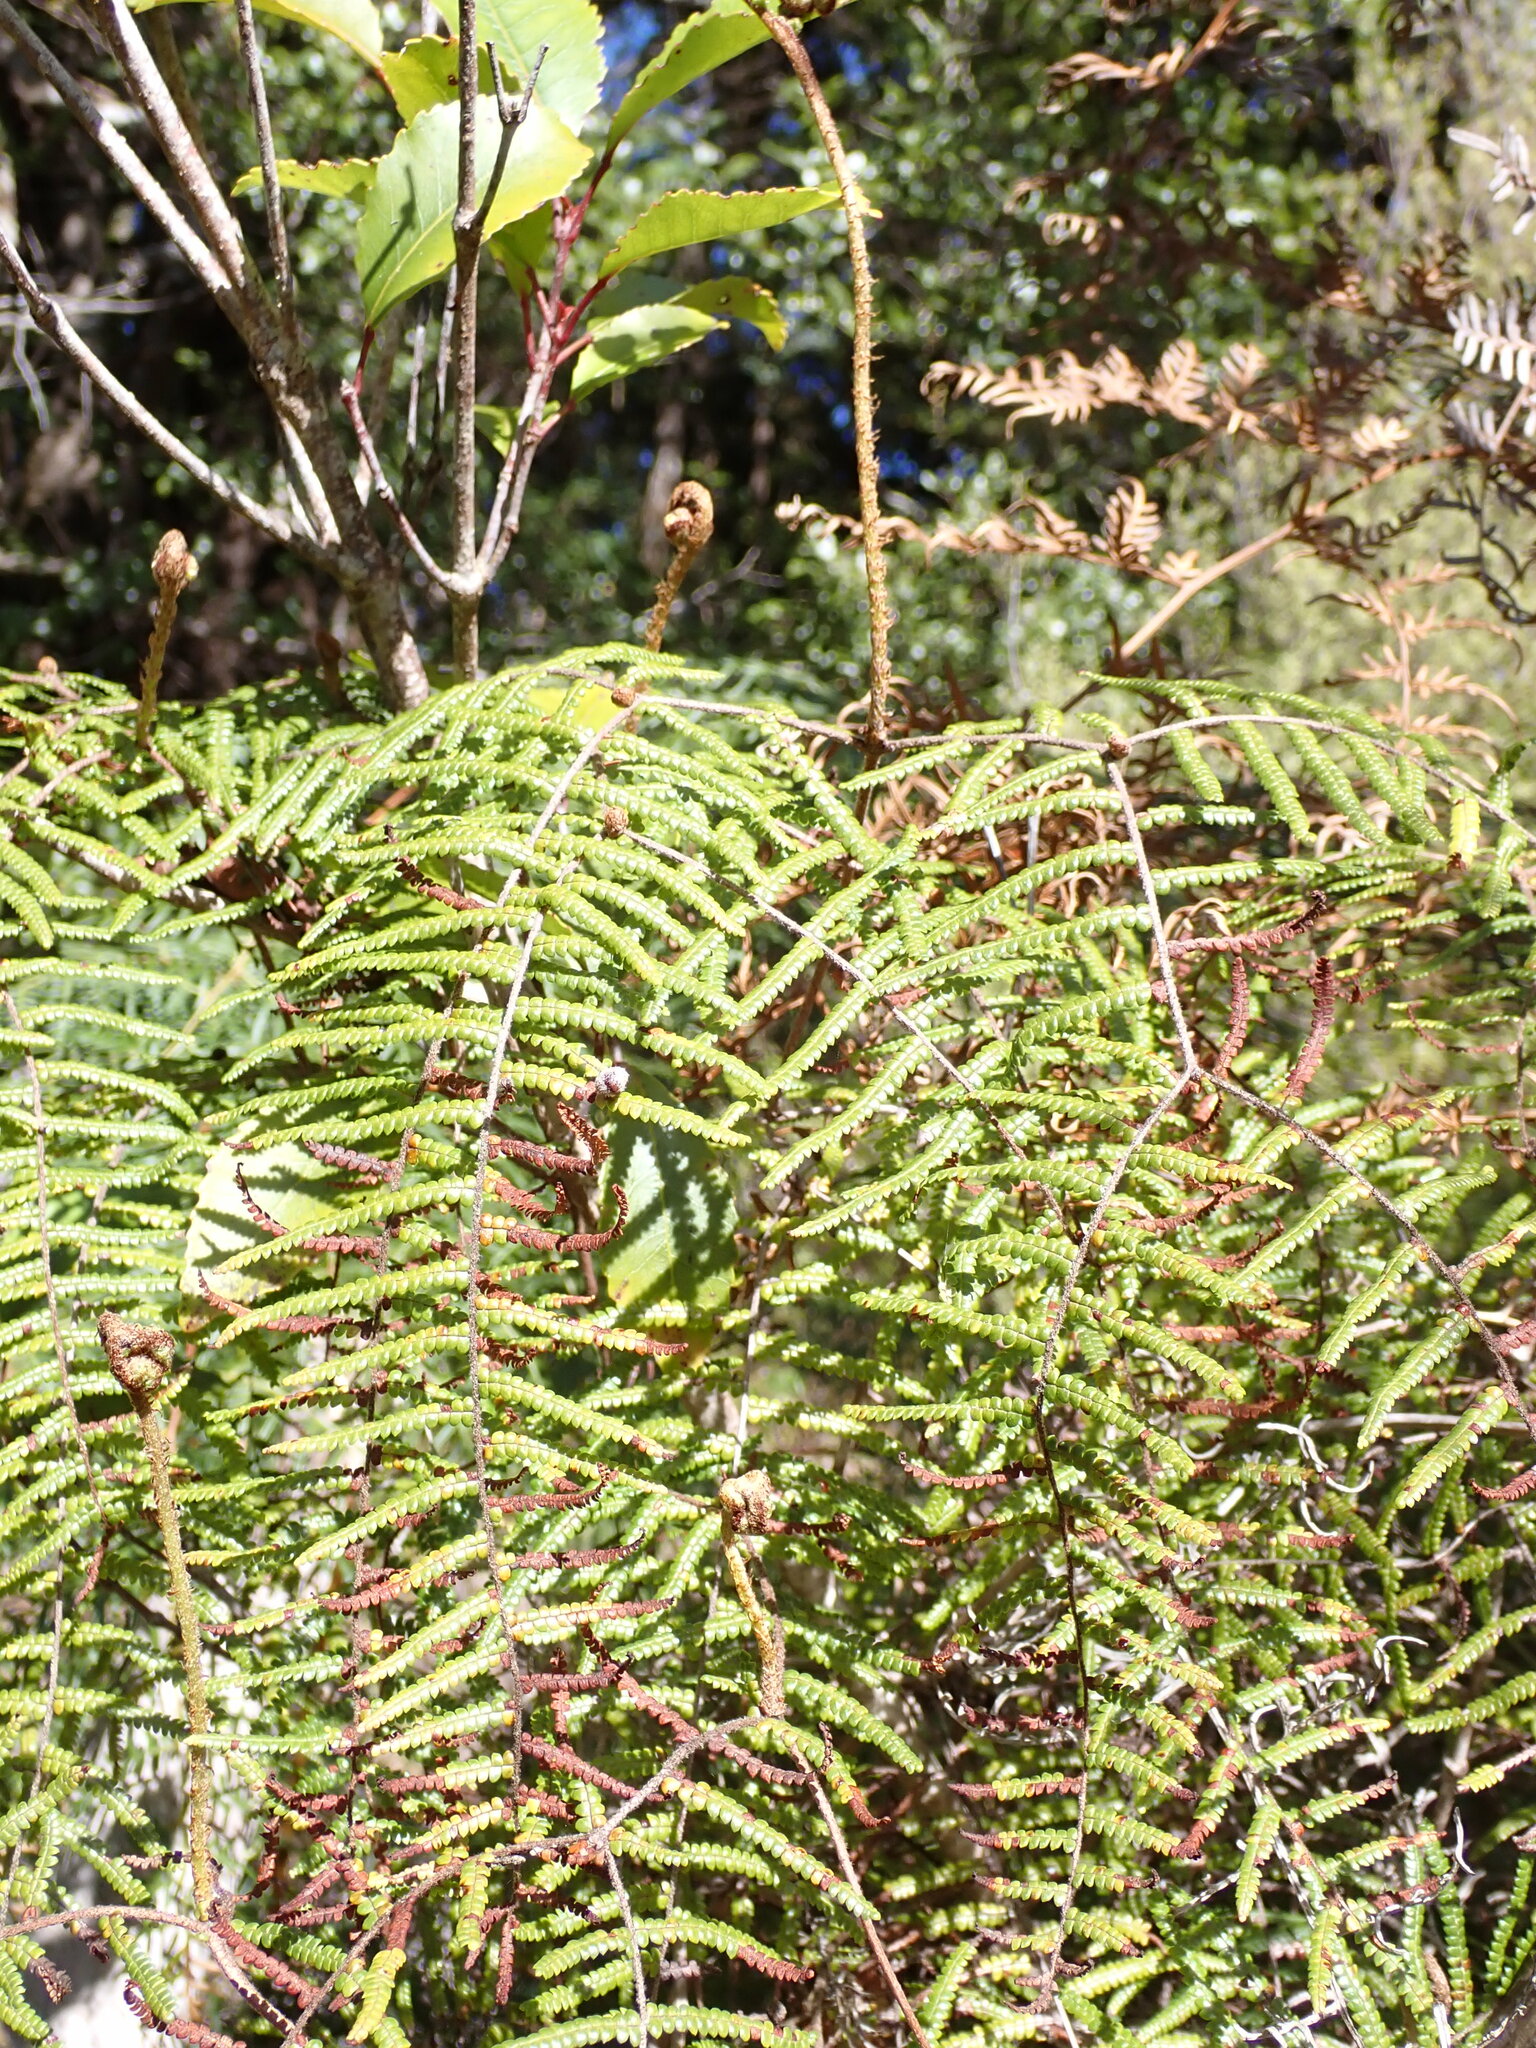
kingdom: Plantae
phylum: Tracheophyta
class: Polypodiopsida
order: Gleicheniales
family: Gleicheniaceae
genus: Gleichenia
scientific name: Gleichenia microphylla
